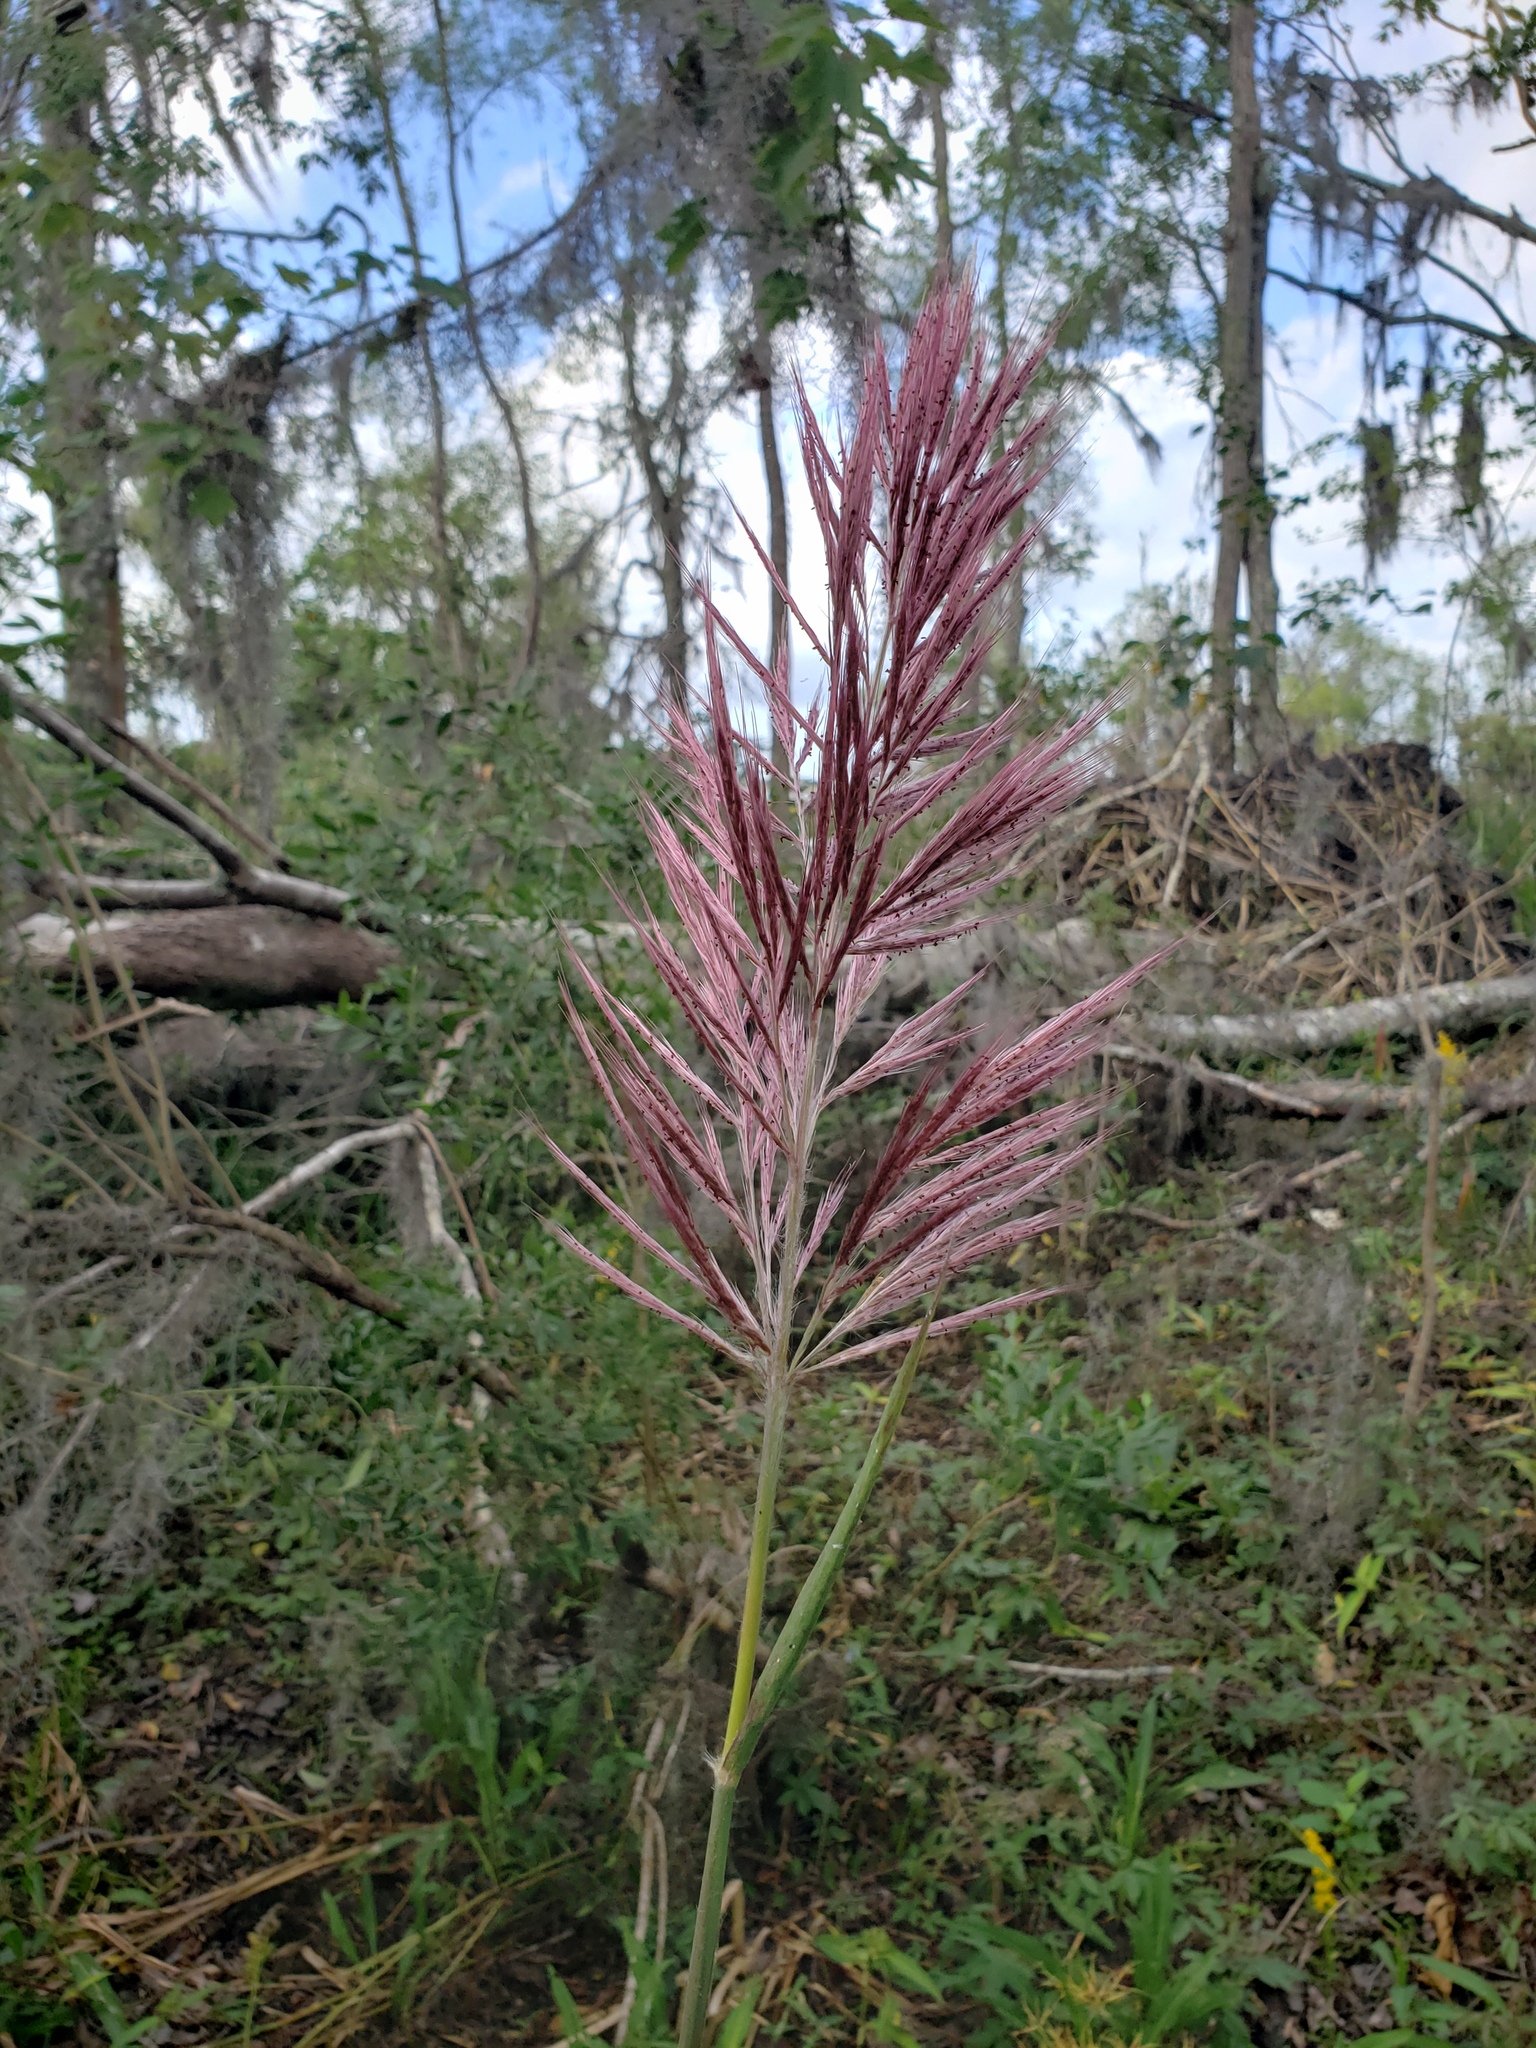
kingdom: Plantae
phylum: Tracheophyta
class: Liliopsida
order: Poales
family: Poaceae
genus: Erianthus
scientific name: Erianthus giganteus
